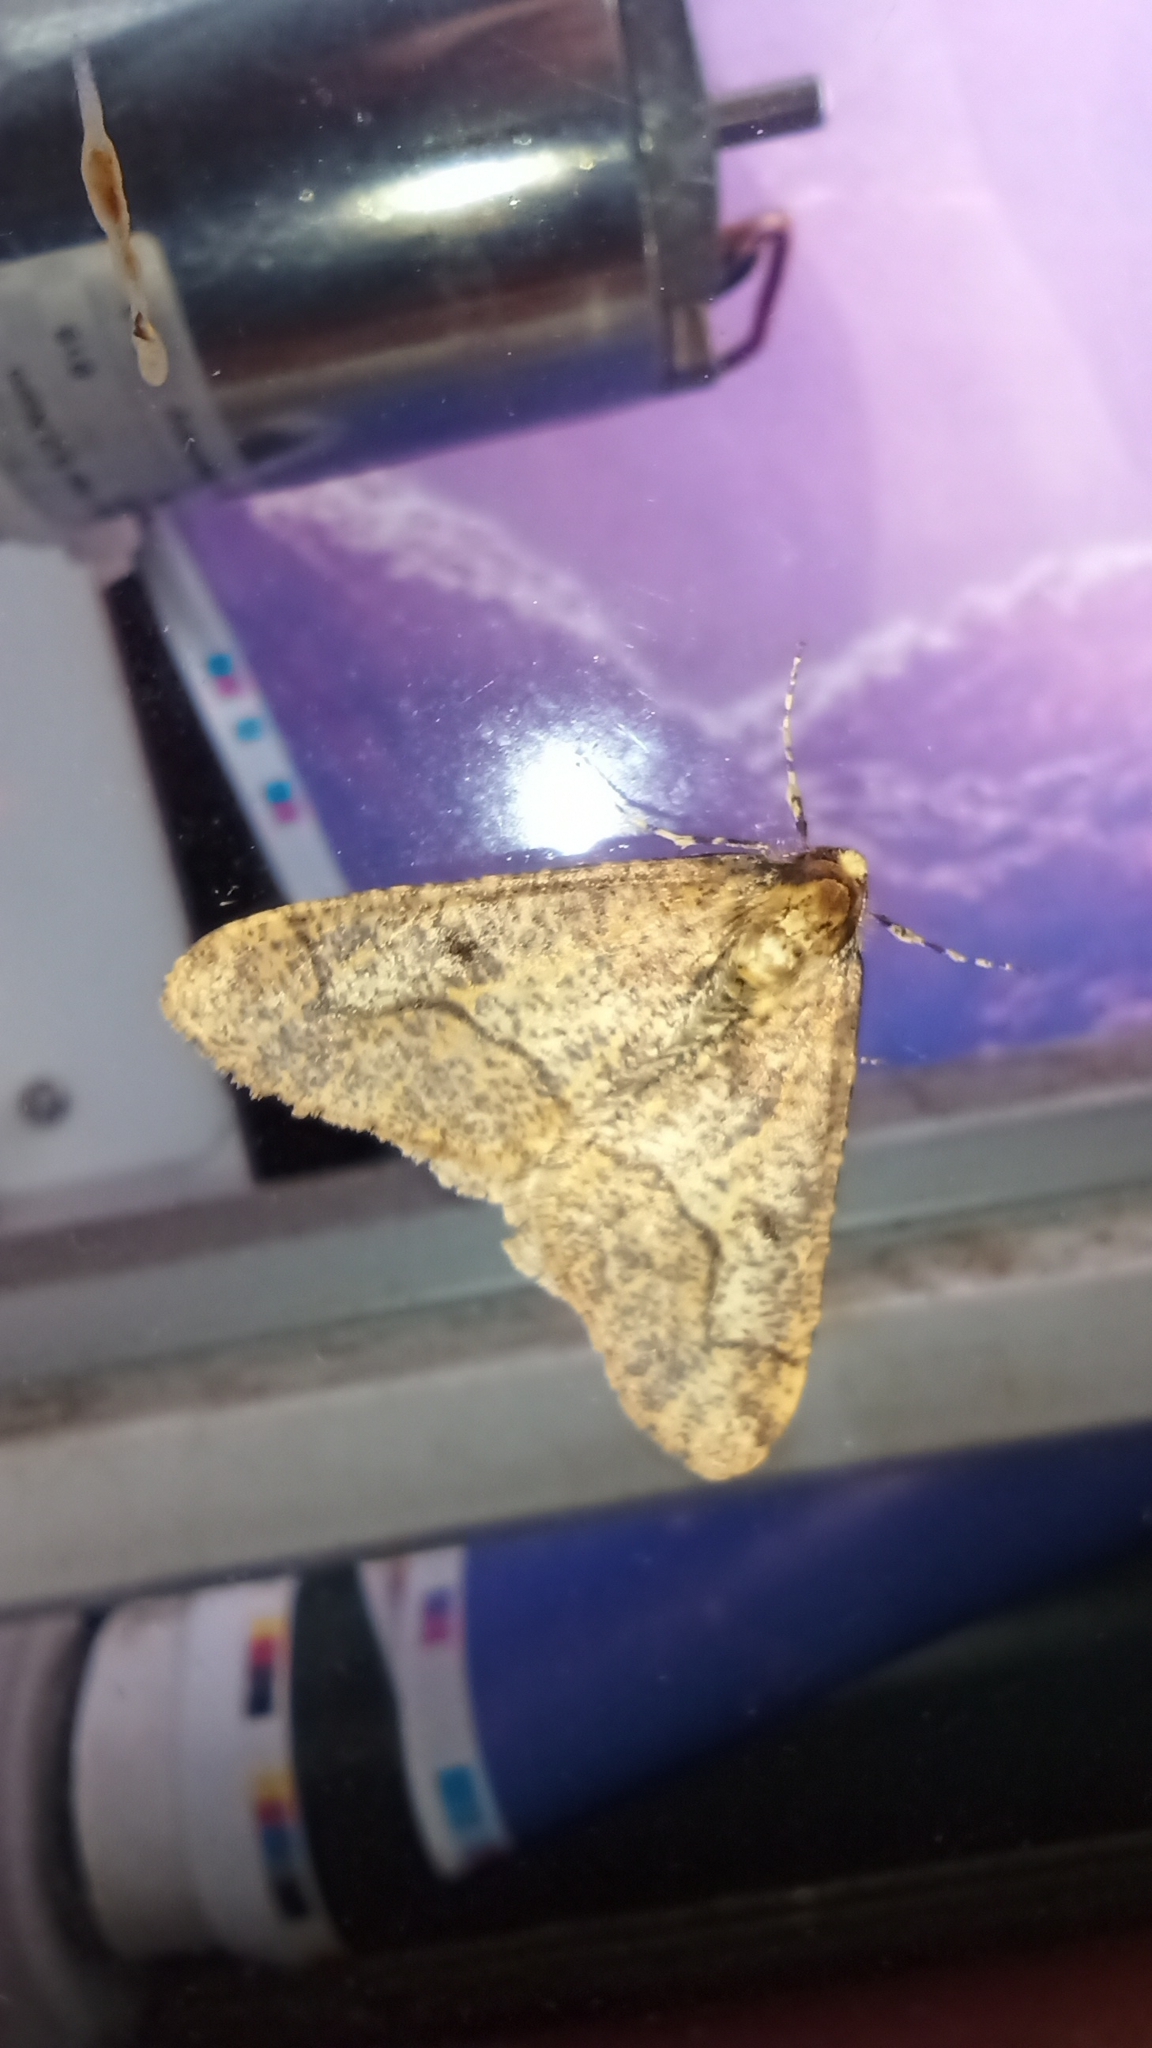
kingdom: Animalia
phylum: Arthropoda
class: Insecta
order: Lepidoptera
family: Geometridae
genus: Erannis
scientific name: Erannis defoliaria
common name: Mottled umber
